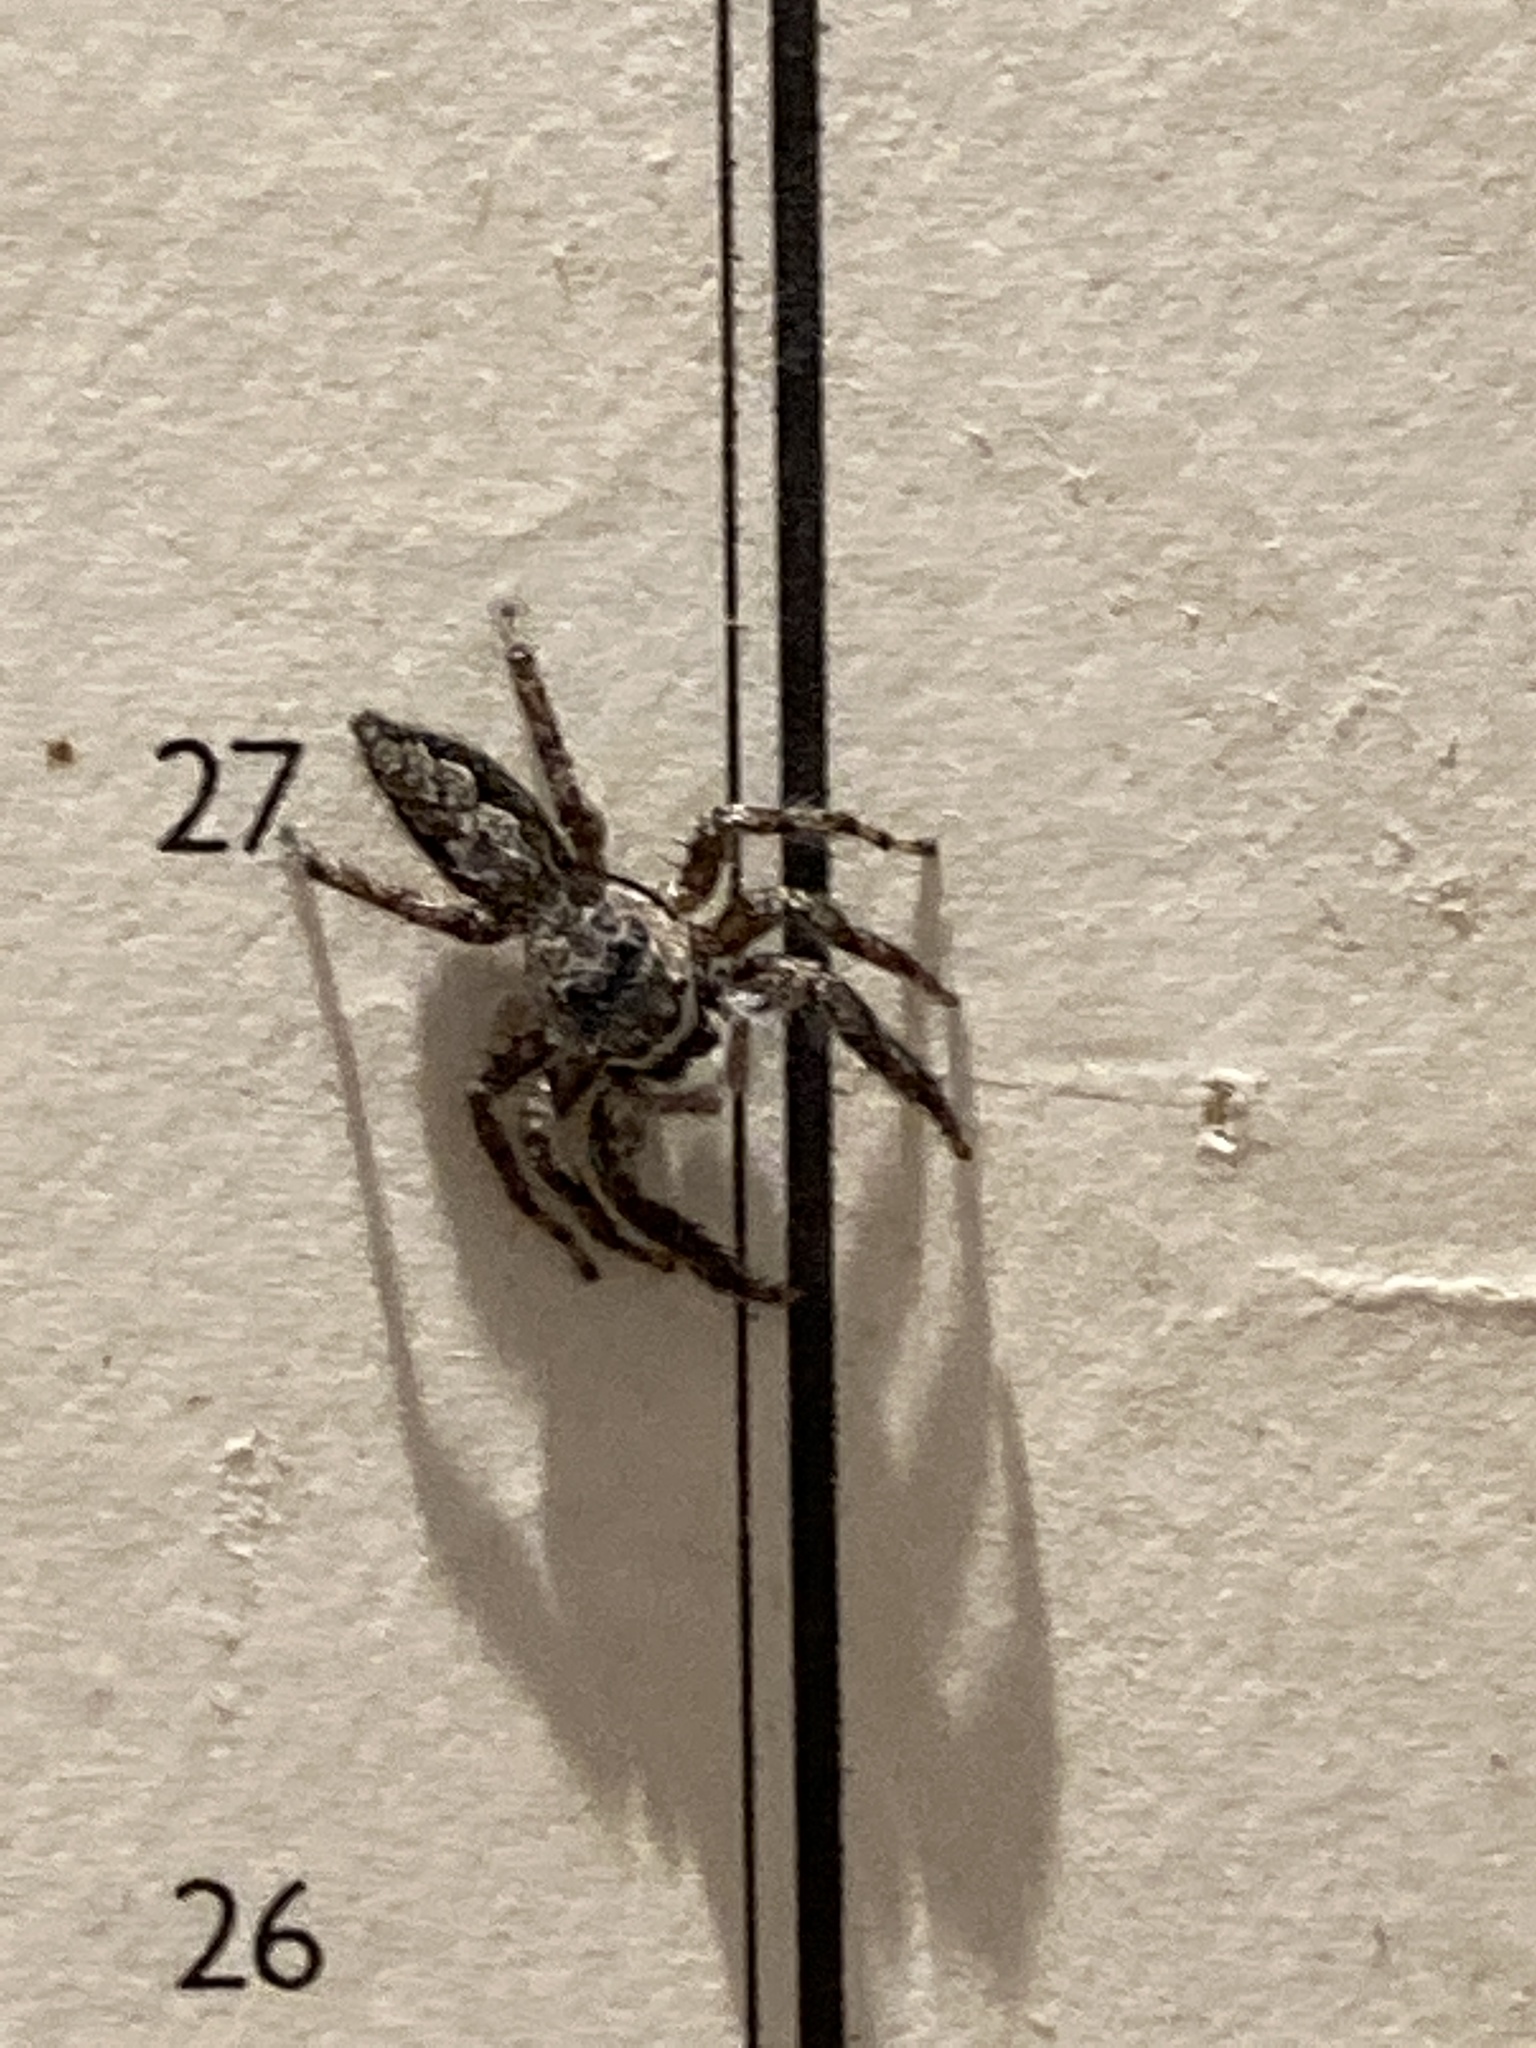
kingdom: Animalia
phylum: Arthropoda
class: Arachnida
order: Araneae
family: Salticidae
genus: Platycryptus
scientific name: Platycryptus undatus
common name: Tan jumping spider
